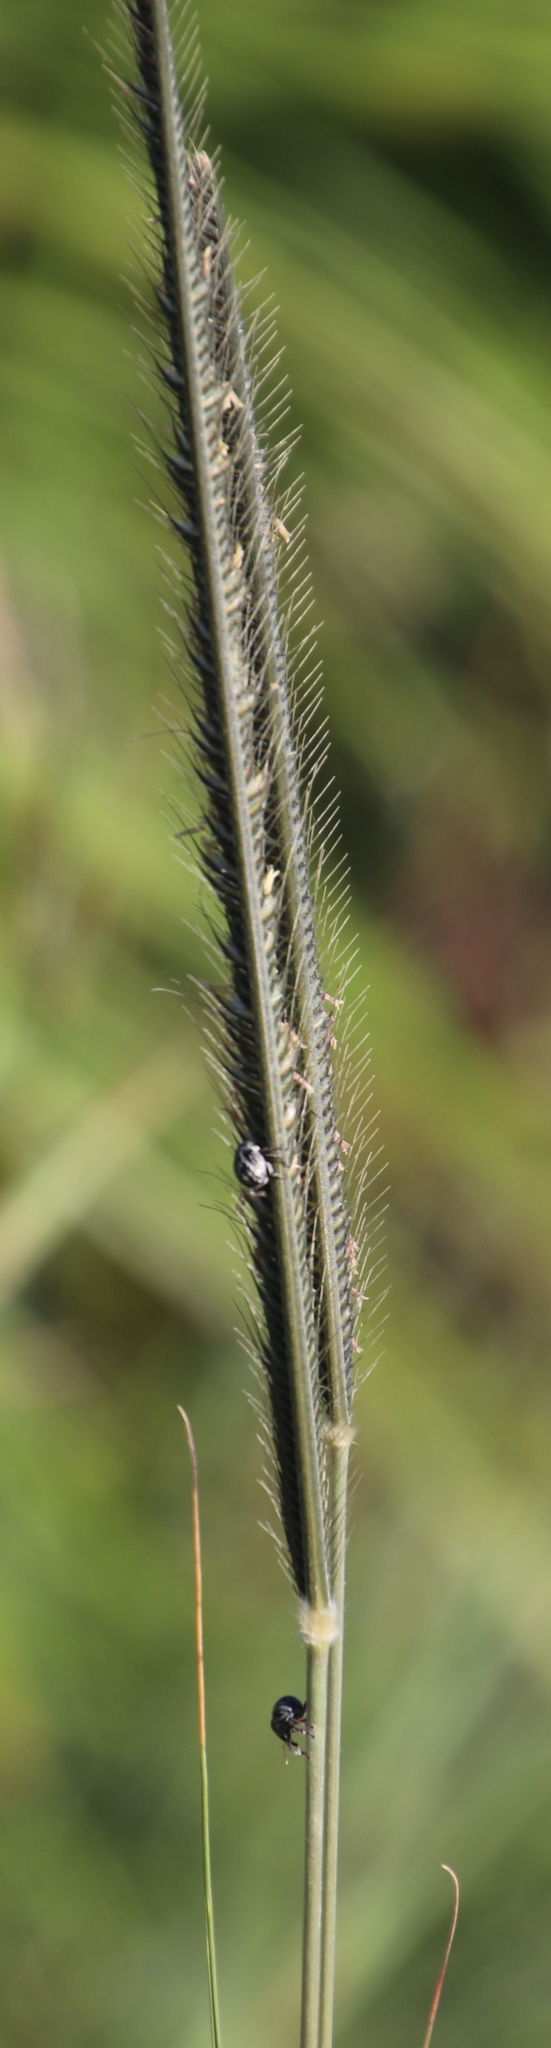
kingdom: Plantae
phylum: Tracheophyta
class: Liliopsida
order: Poales
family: Poaceae
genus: Ctenium
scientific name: Ctenium concinnum
